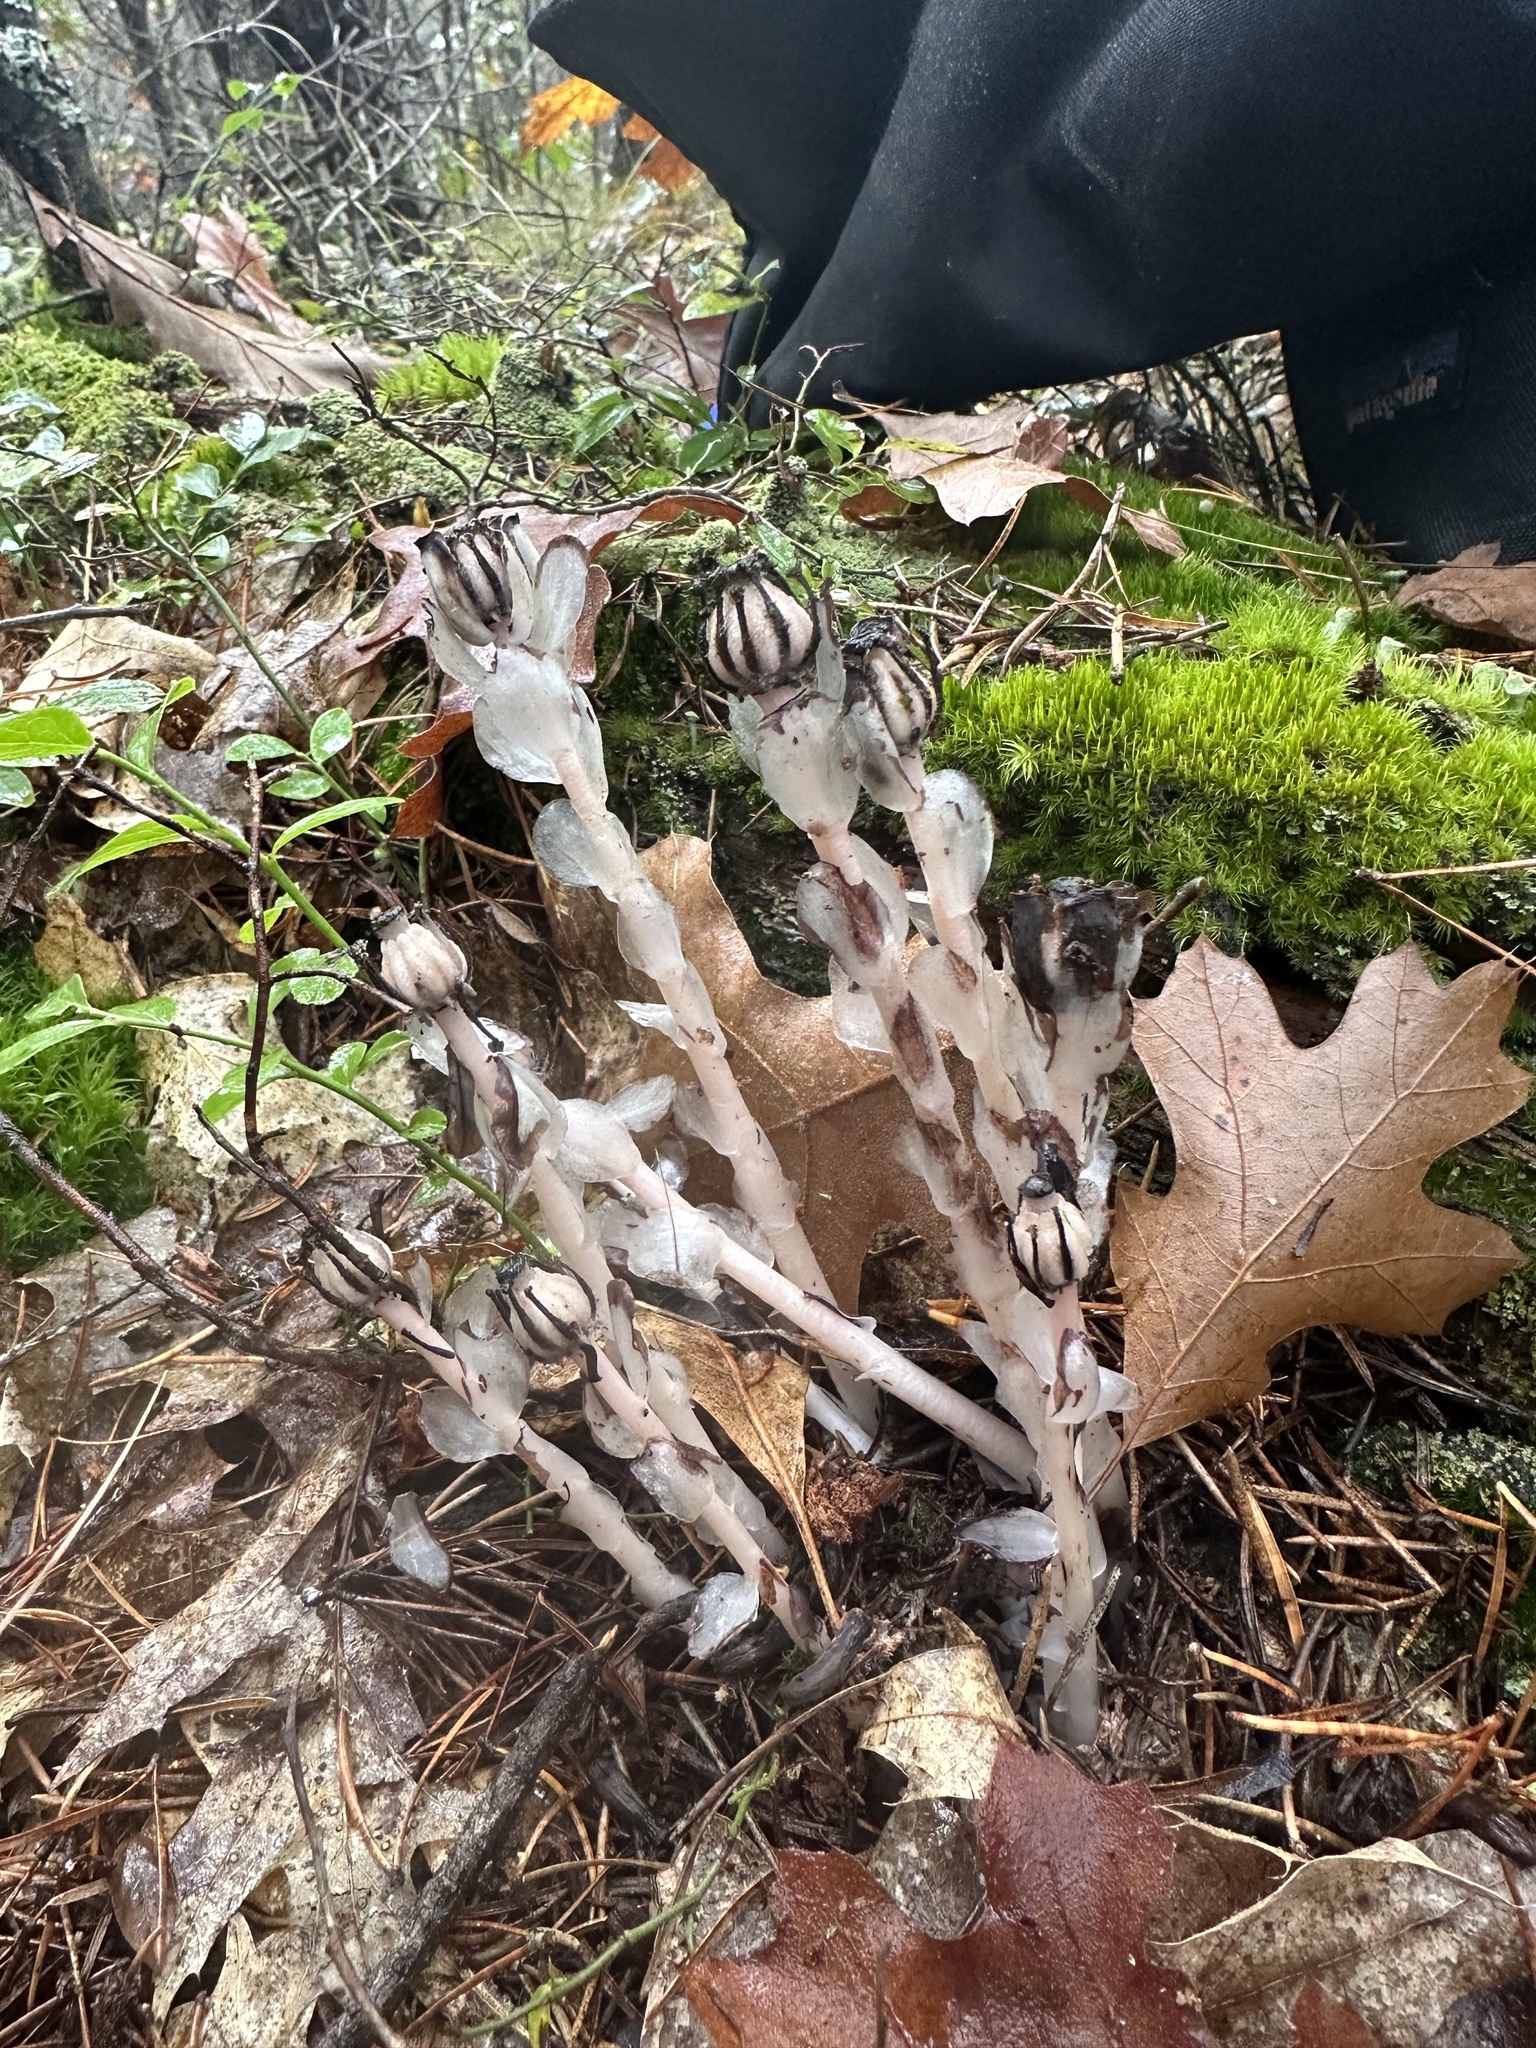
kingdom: Plantae
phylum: Tracheophyta
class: Magnoliopsida
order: Ericales
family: Ericaceae
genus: Monotropa
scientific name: Monotropa uniflora
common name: Convulsion root
